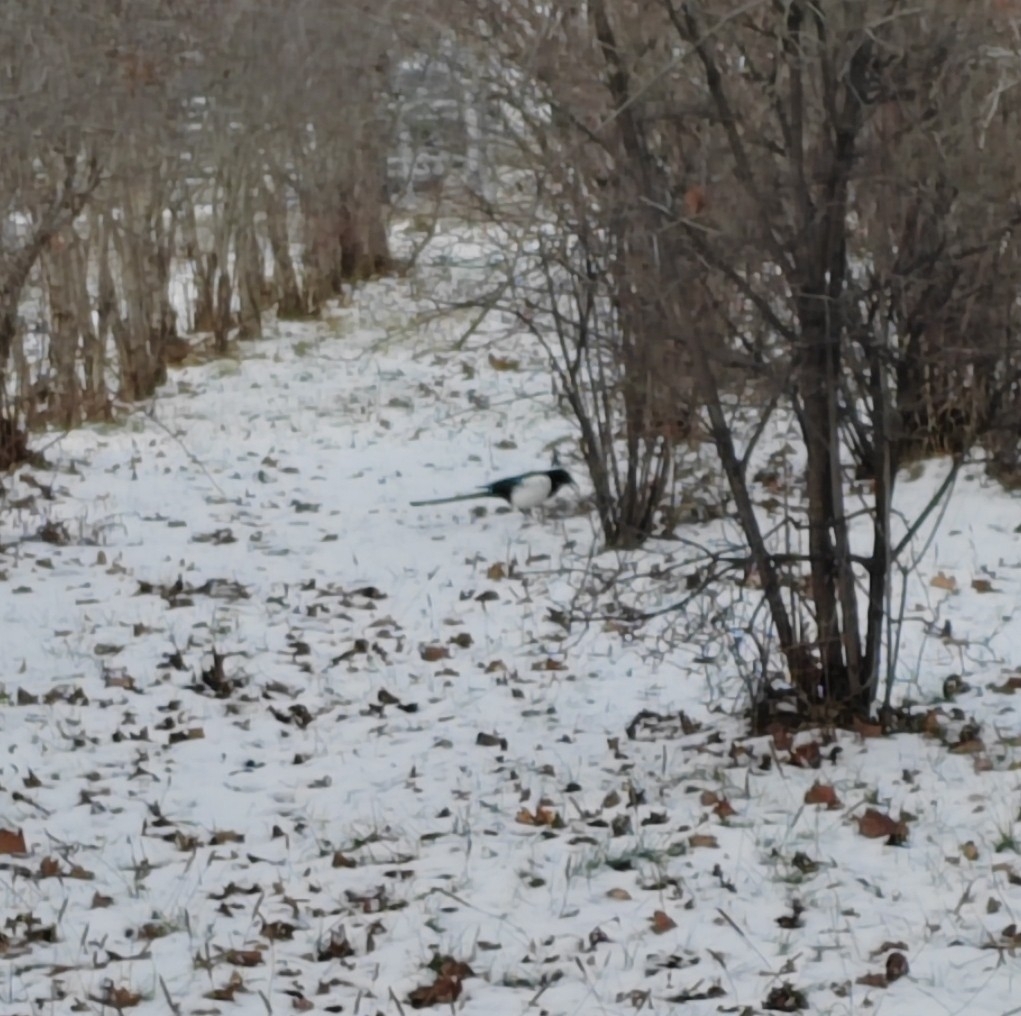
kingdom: Animalia
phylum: Chordata
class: Aves
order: Passeriformes
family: Corvidae
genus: Pica
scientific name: Pica pica
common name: Eurasian magpie
